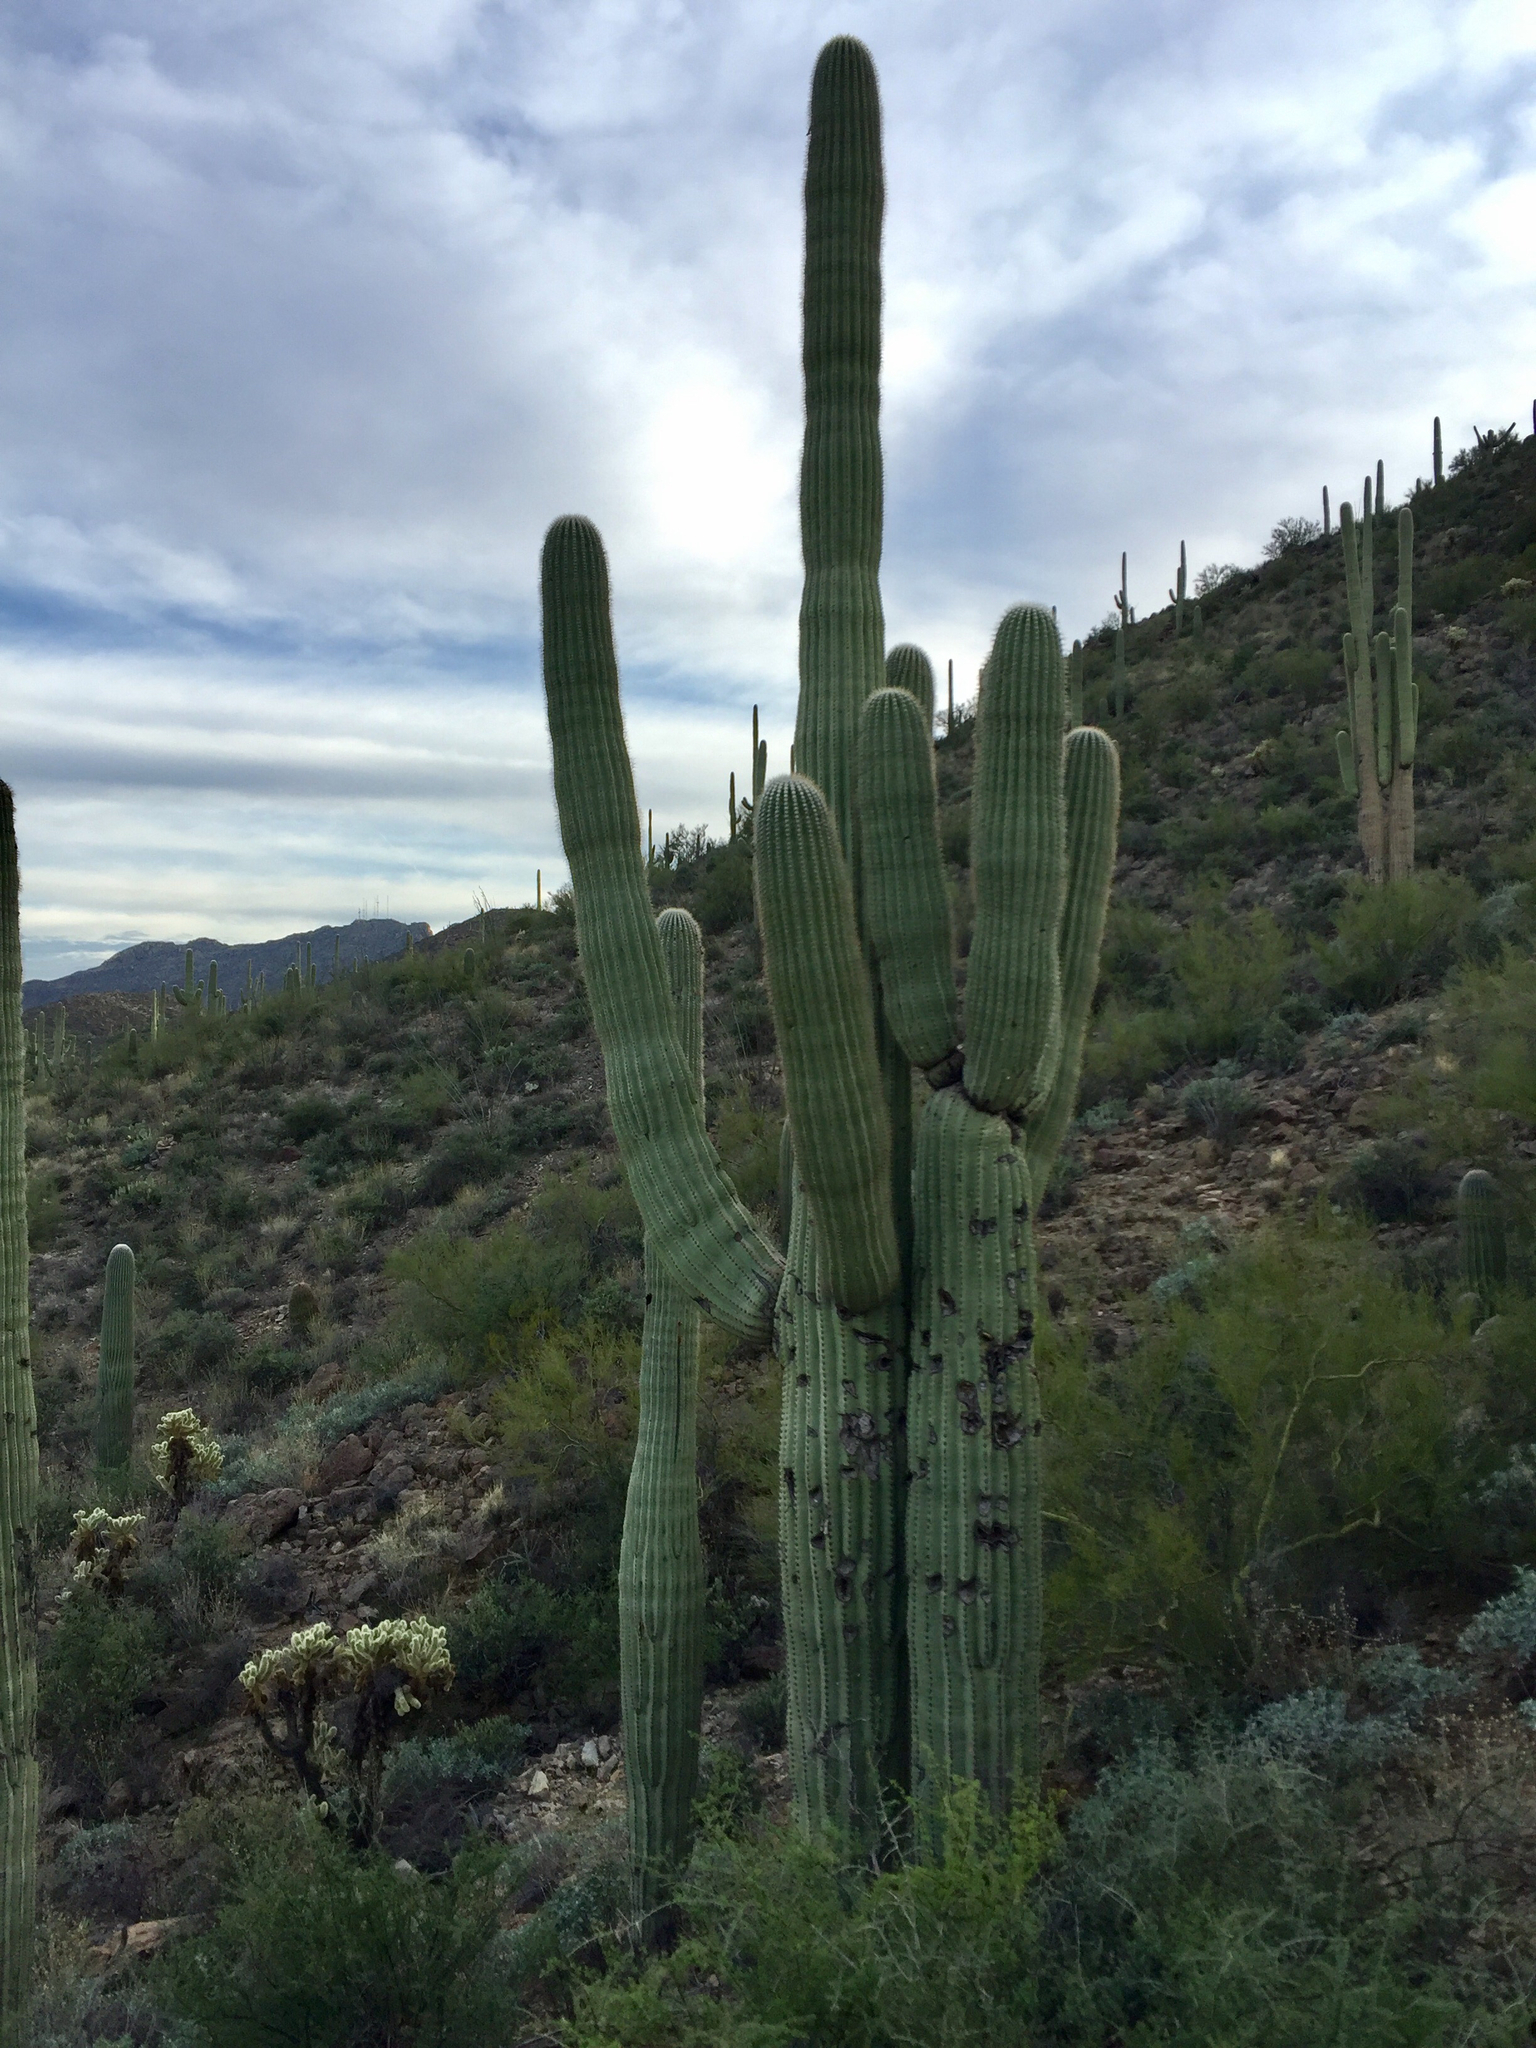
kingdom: Plantae
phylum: Tracheophyta
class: Magnoliopsida
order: Caryophyllales
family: Cactaceae
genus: Carnegiea
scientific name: Carnegiea gigantea
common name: Saguaro
